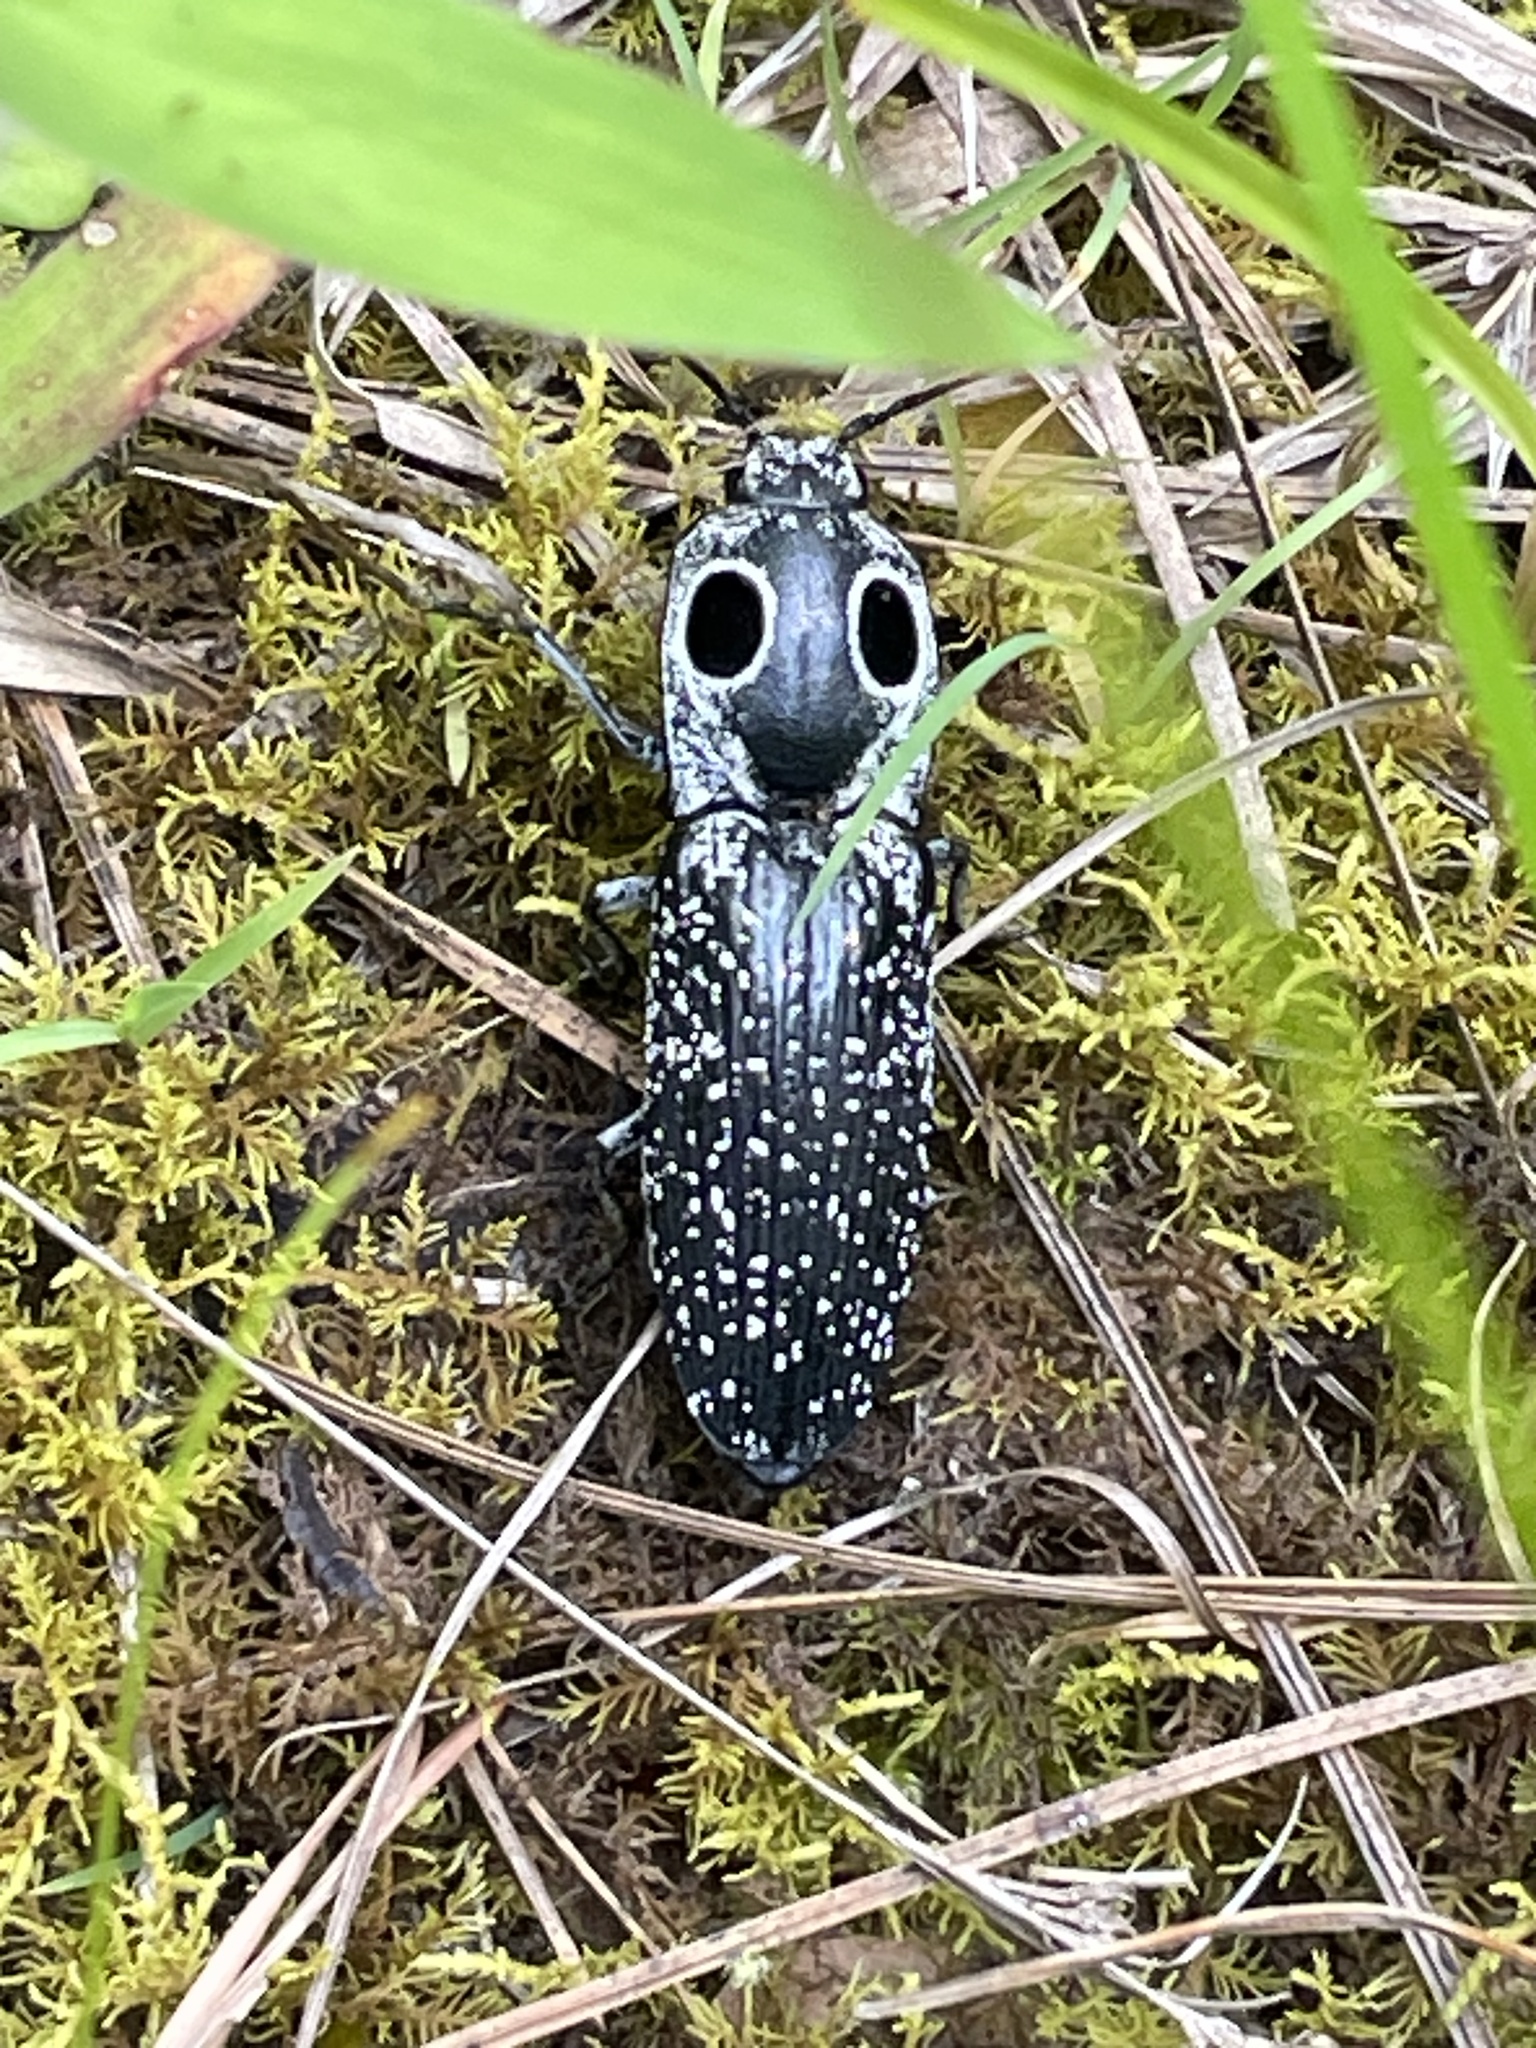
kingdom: Animalia
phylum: Arthropoda
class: Insecta
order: Coleoptera
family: Elateridae
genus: Alaus
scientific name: Alaus oculatus
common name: Eastern eyed click beetle
